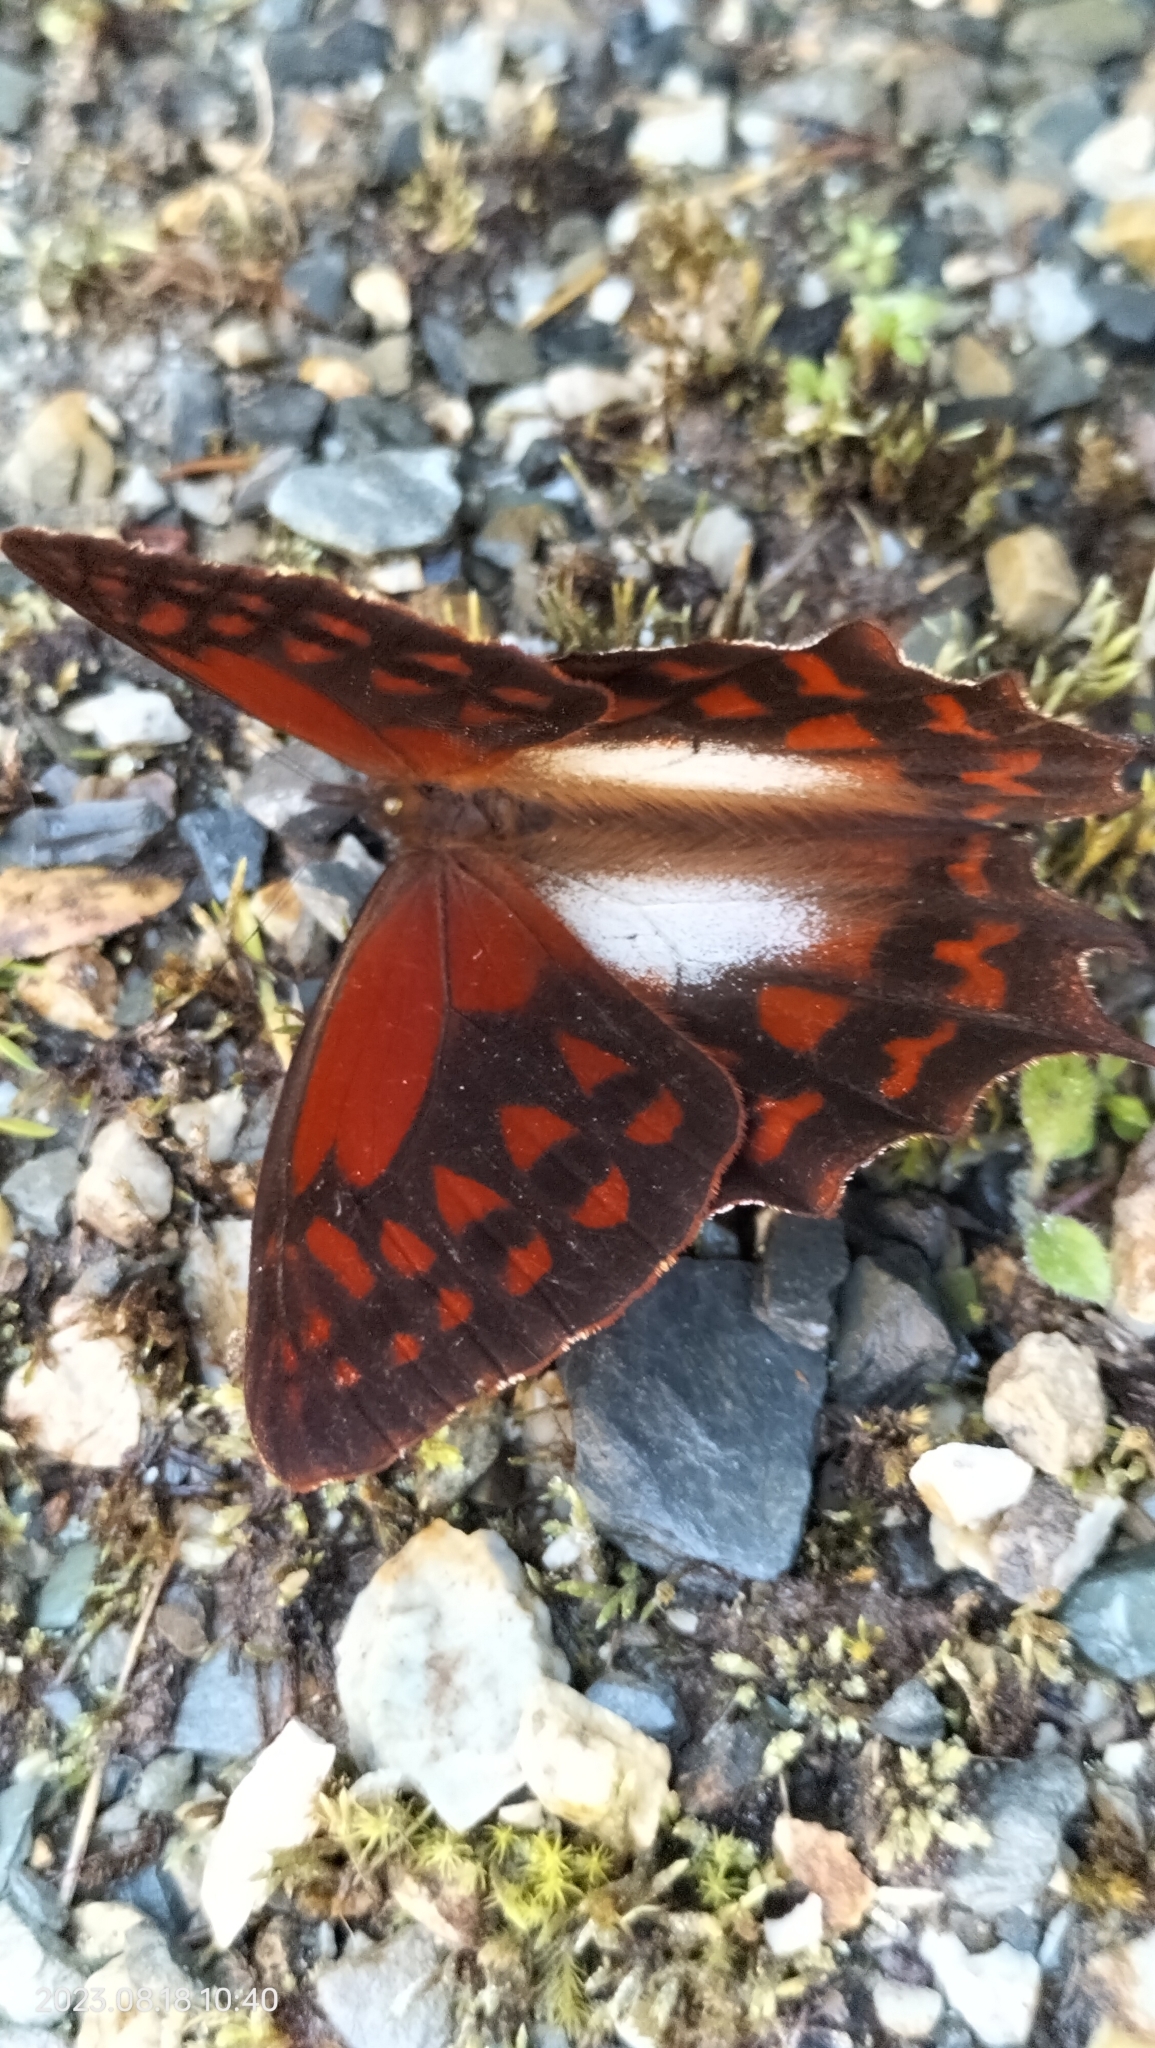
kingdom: Animalia
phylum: Arthropoda
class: Insecta
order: Lepidoptera
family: Nymphalidae
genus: Lasiophila
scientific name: Lasiophila cirta
